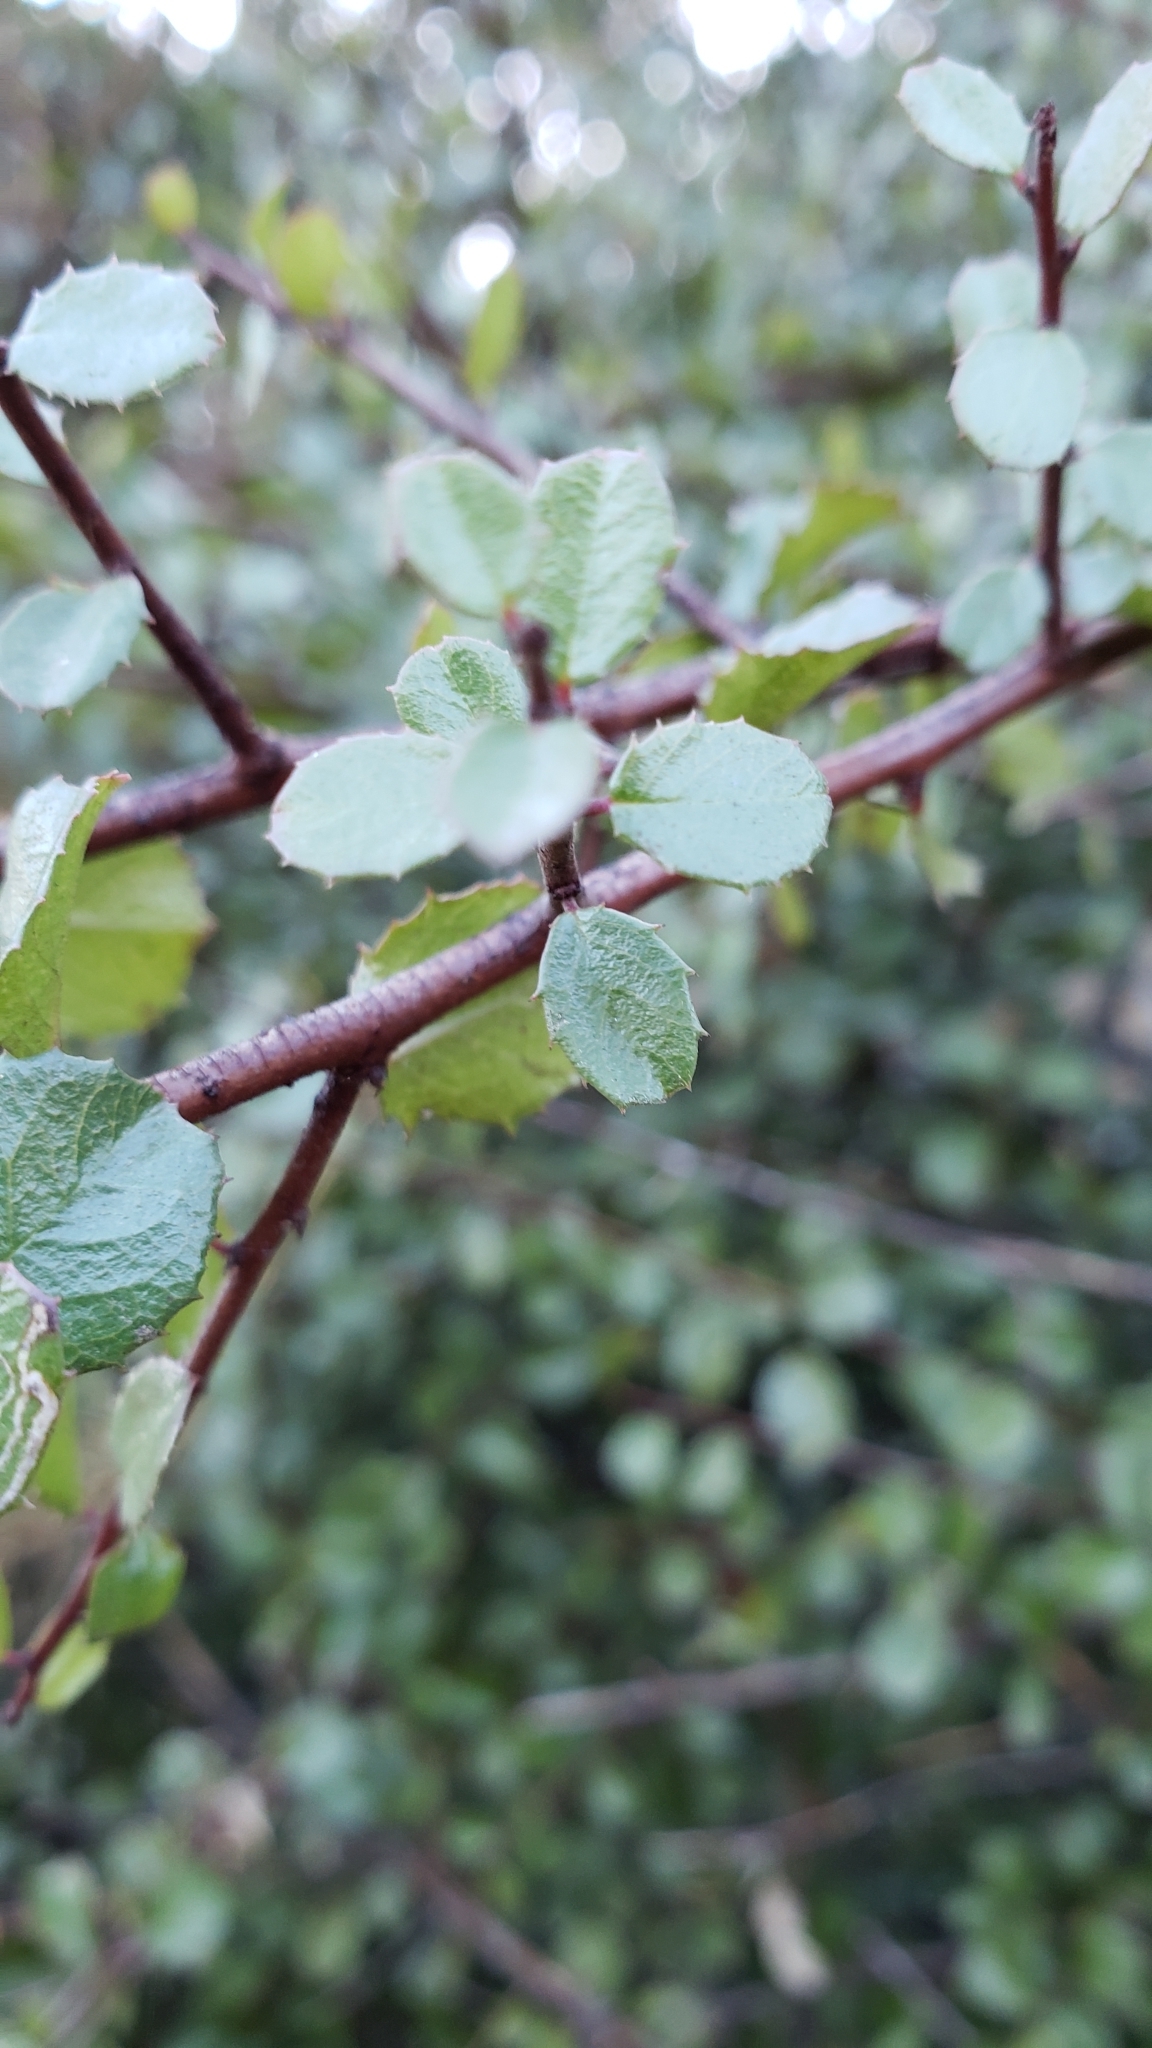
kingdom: Plantae
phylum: Tracheophyta
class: Magnoliopsida
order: Rosales
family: Rhamnaceae
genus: Endotropis
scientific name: Endotropis crocea
